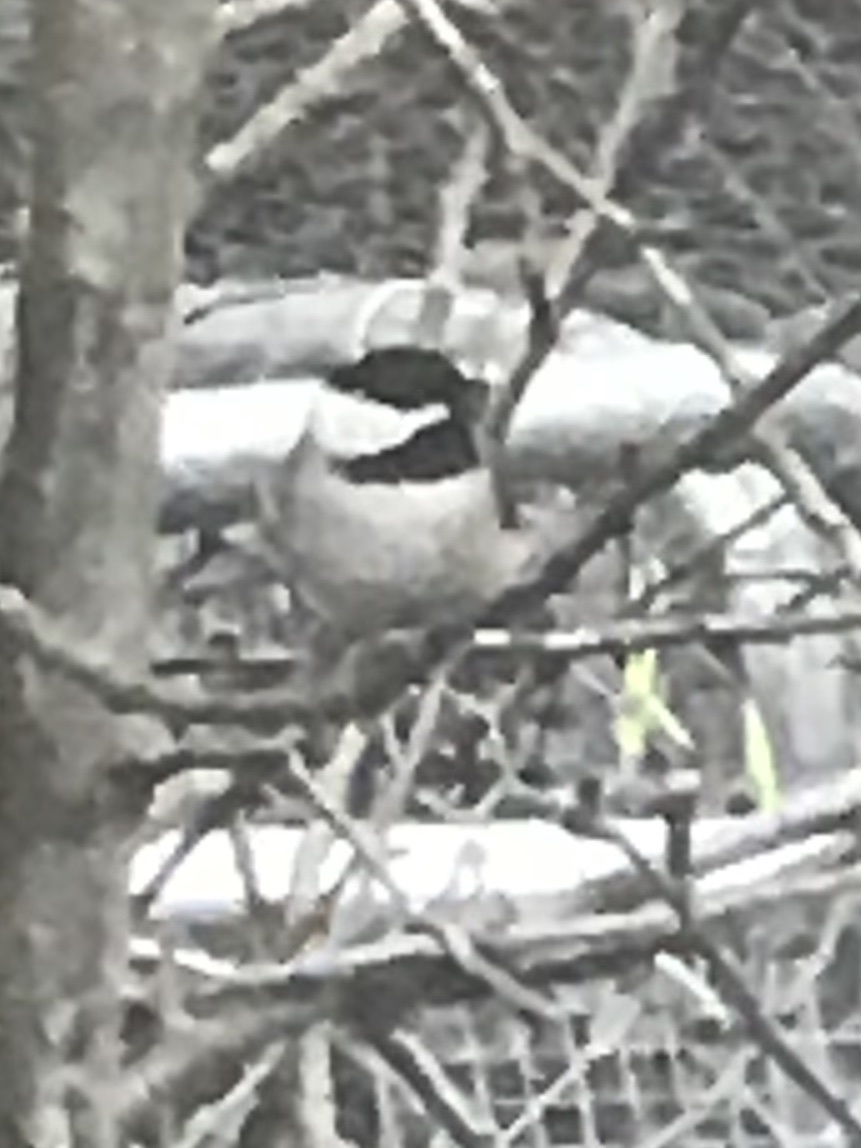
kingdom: Animalia
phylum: Chordata
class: Aves
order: Passeriformes
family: Paridae
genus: Poecile
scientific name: Poecile carolinensis
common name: Carolina chickadee
